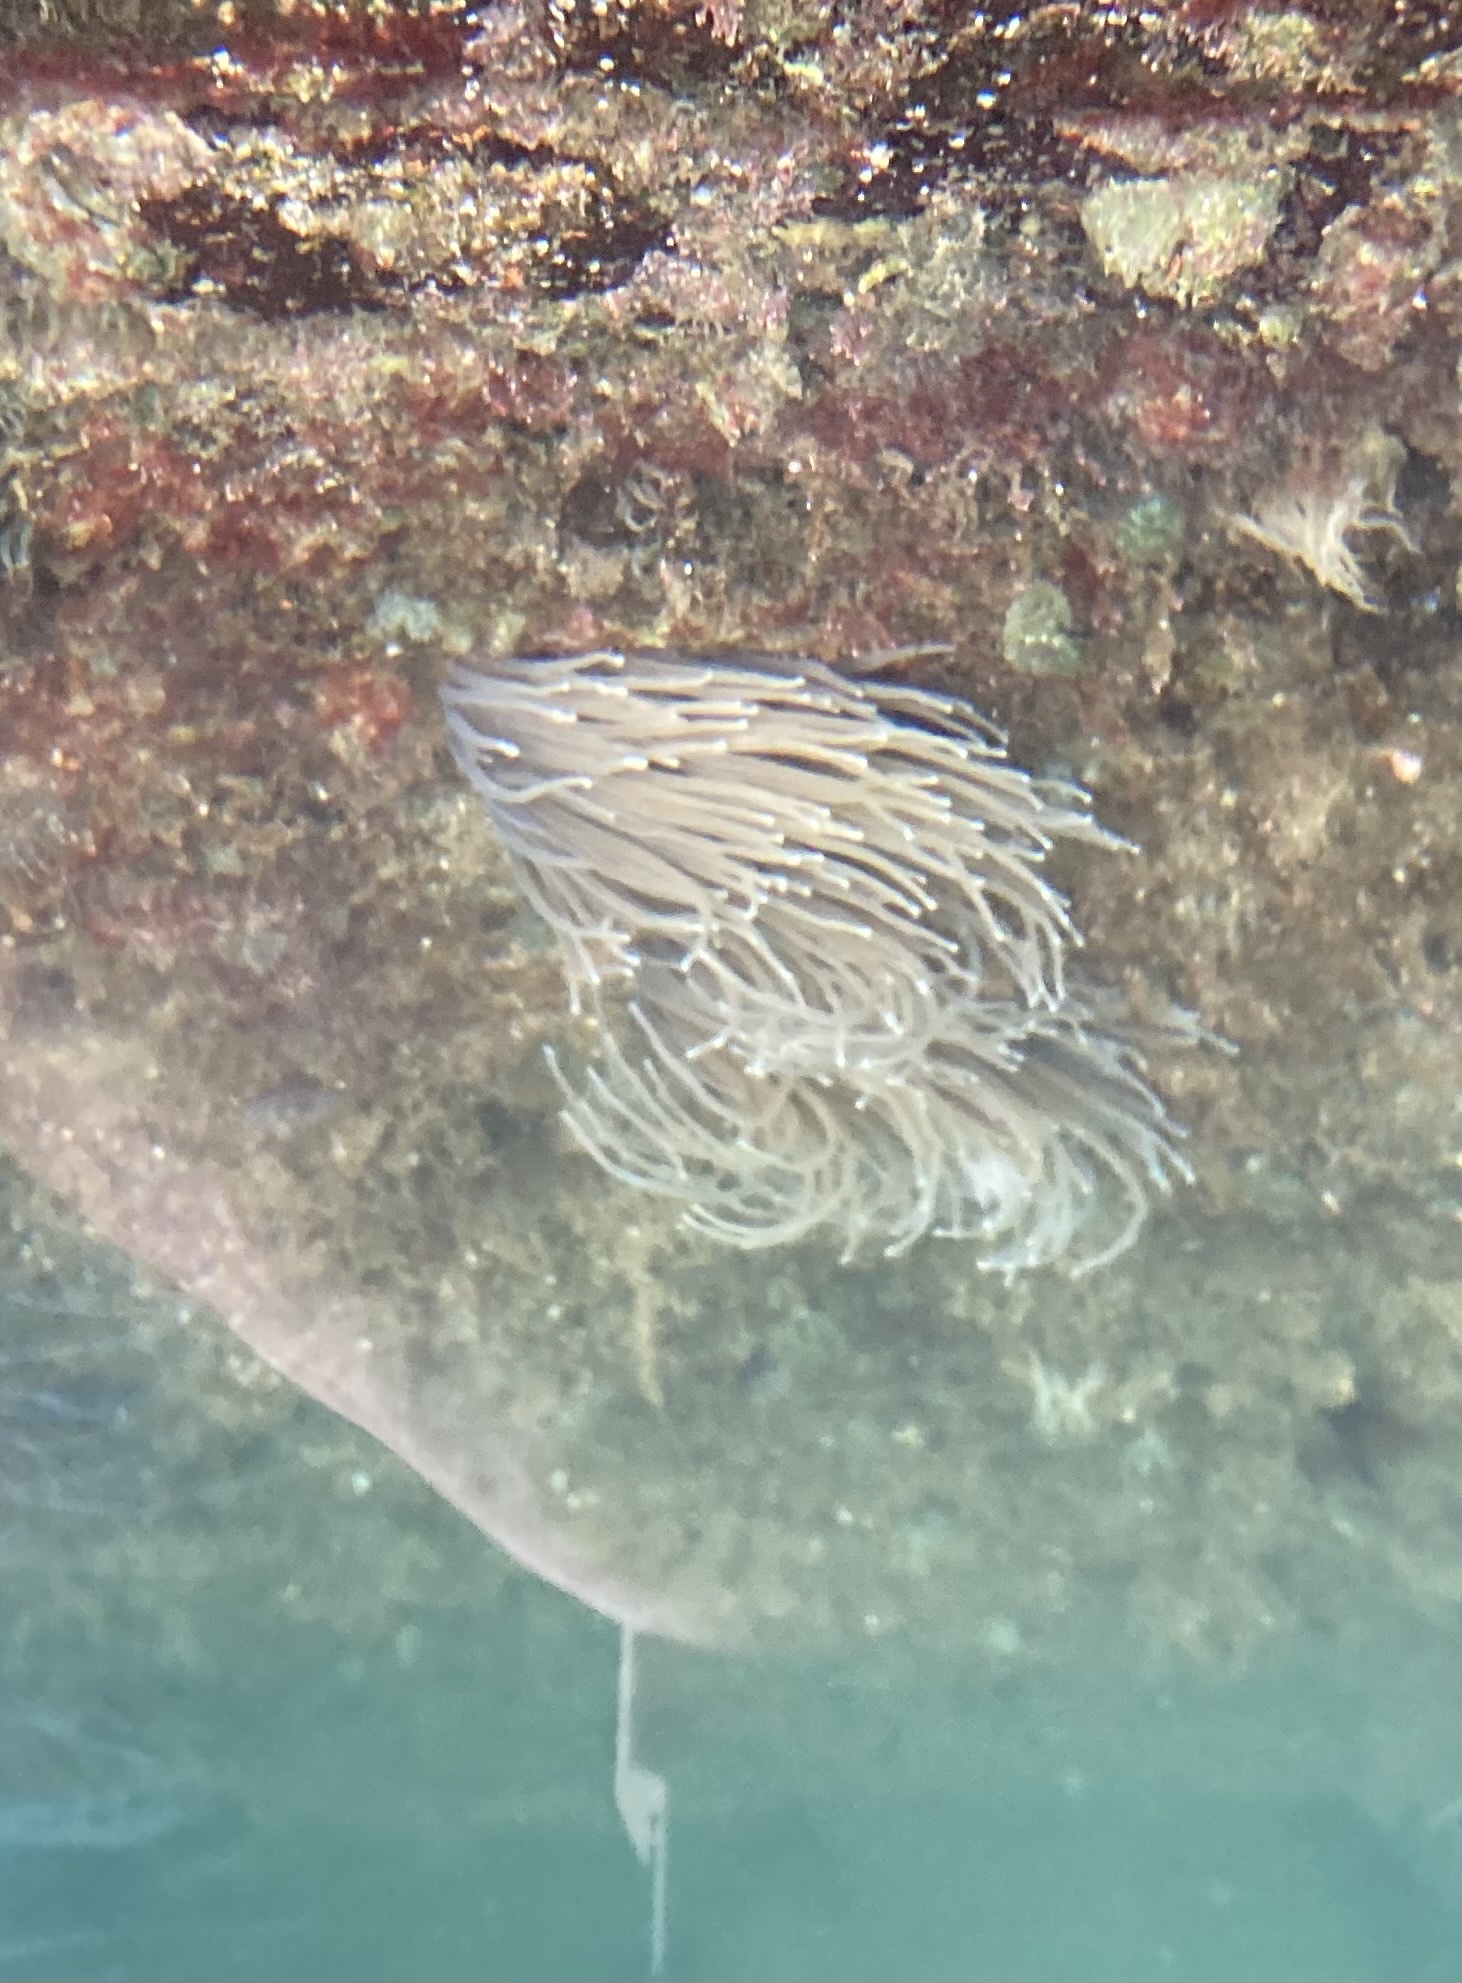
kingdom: Animalia
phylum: Cnidaria
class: Anthozoa
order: Actiniaria
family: Actiniidae
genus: Anemonia
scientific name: Anemonia viridis
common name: Snakelocks anemone
